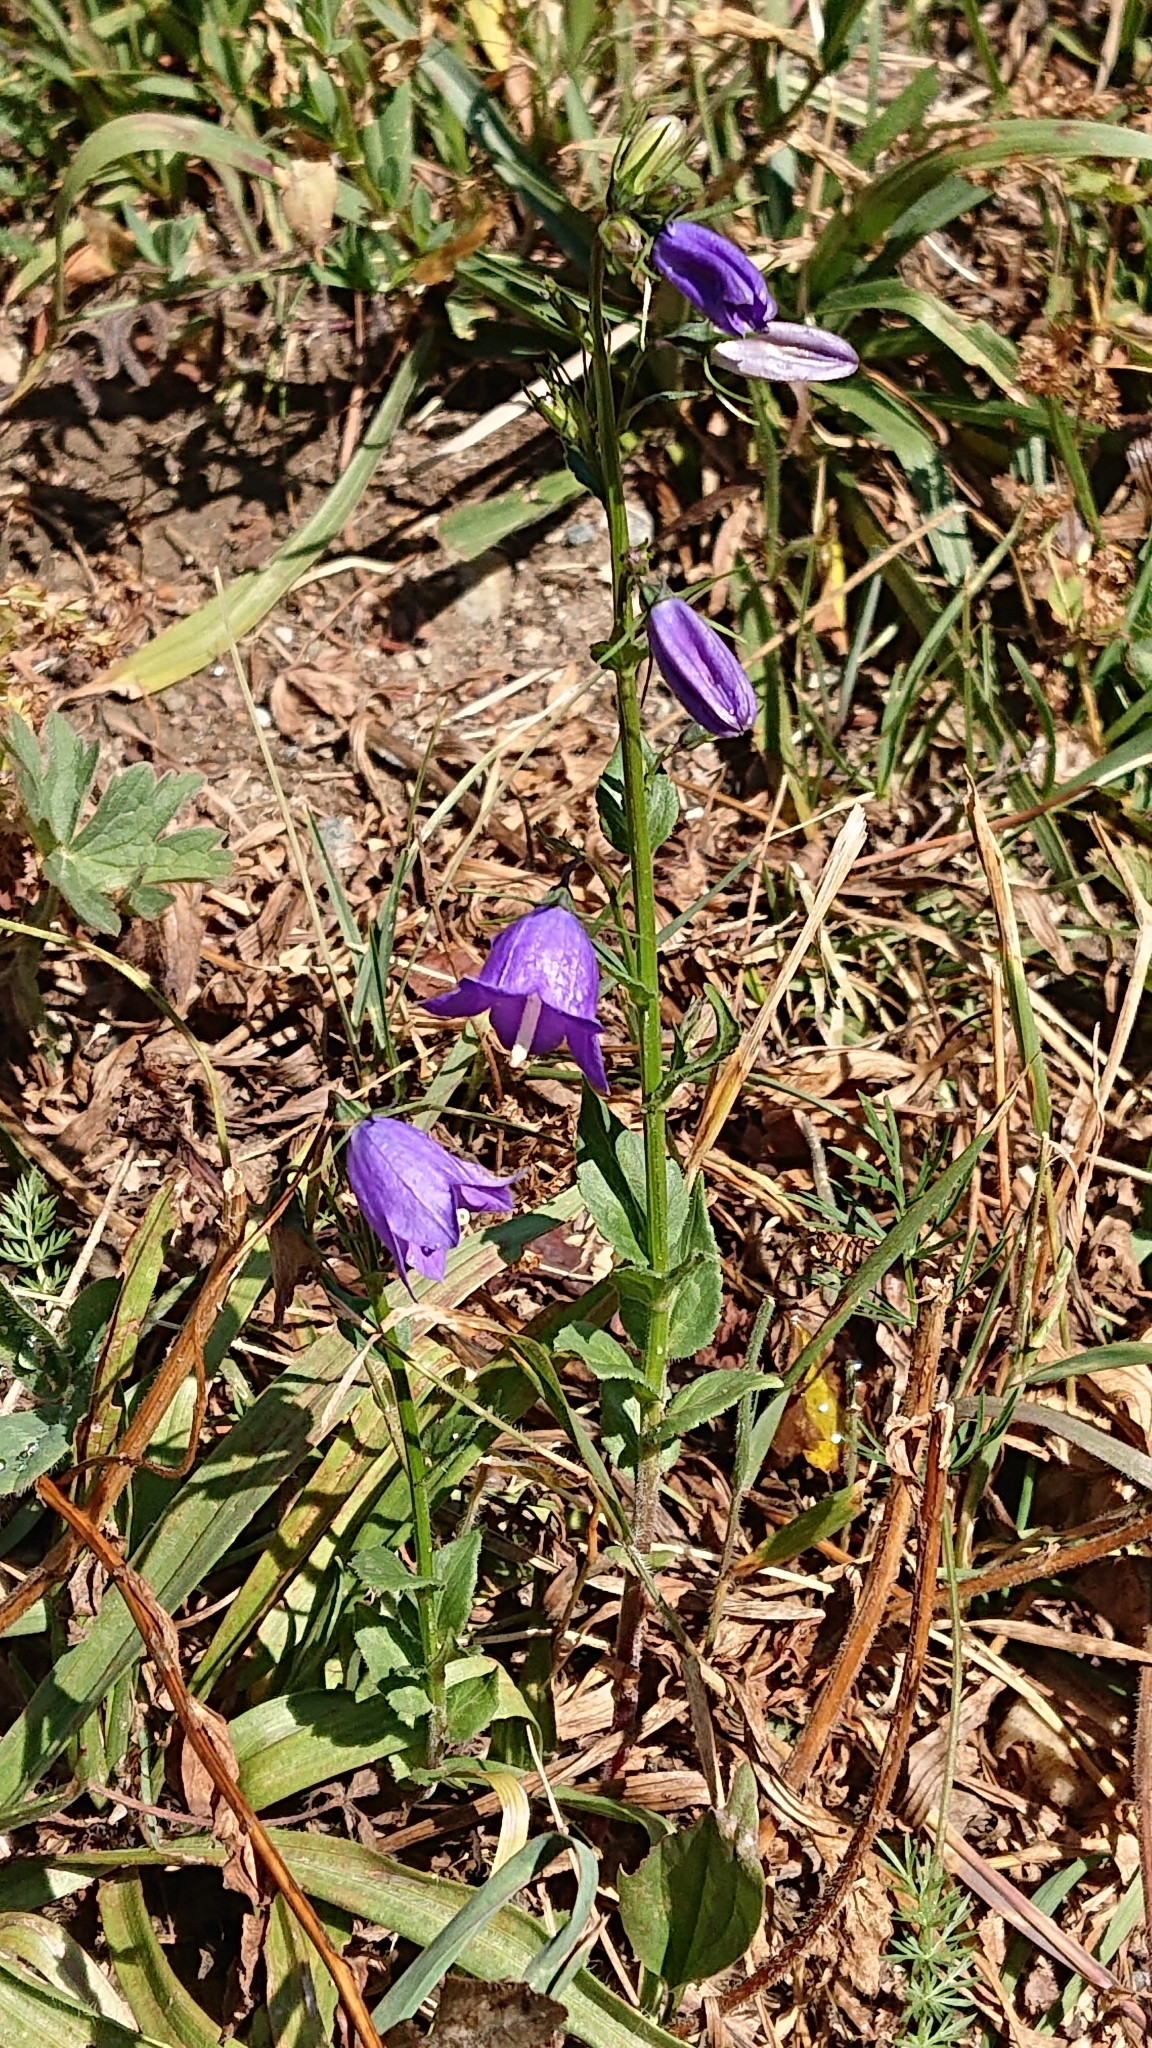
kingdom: Plantae
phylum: Tracheophyta
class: Magnoliopsida
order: Asterales
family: Campanulaceae
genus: Campanula
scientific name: Campanula rhomboidalis
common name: Broad-leaved harebell
